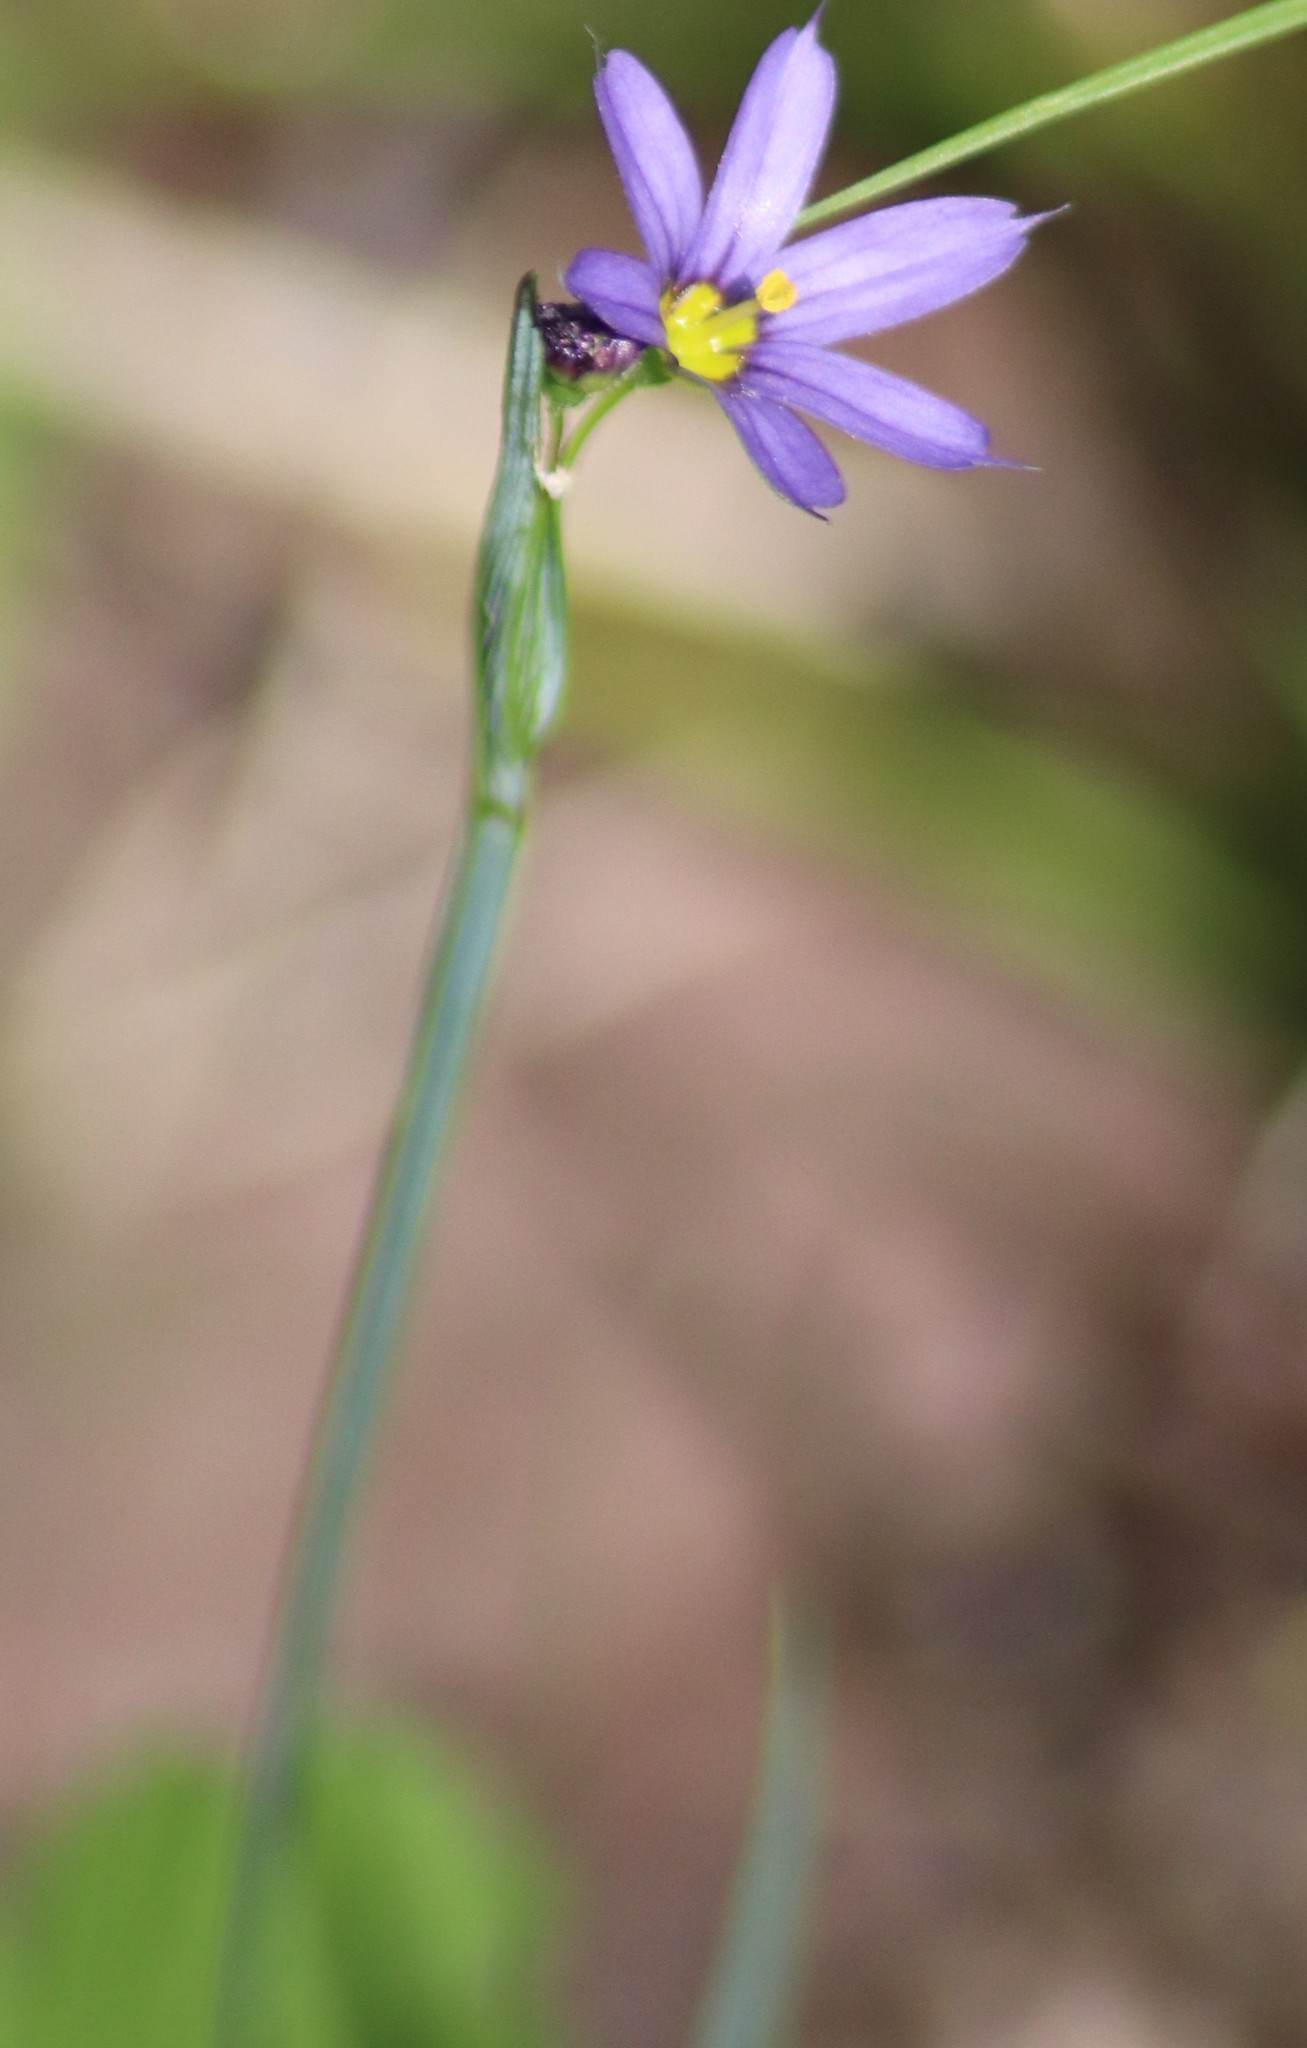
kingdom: Plantae
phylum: Tracheophyta
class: Liliopsida
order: Asparagales
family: Iridaceae
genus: Sisyrinchium
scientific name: Sisyrinchium montanum
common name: American blue-eyed-grass
